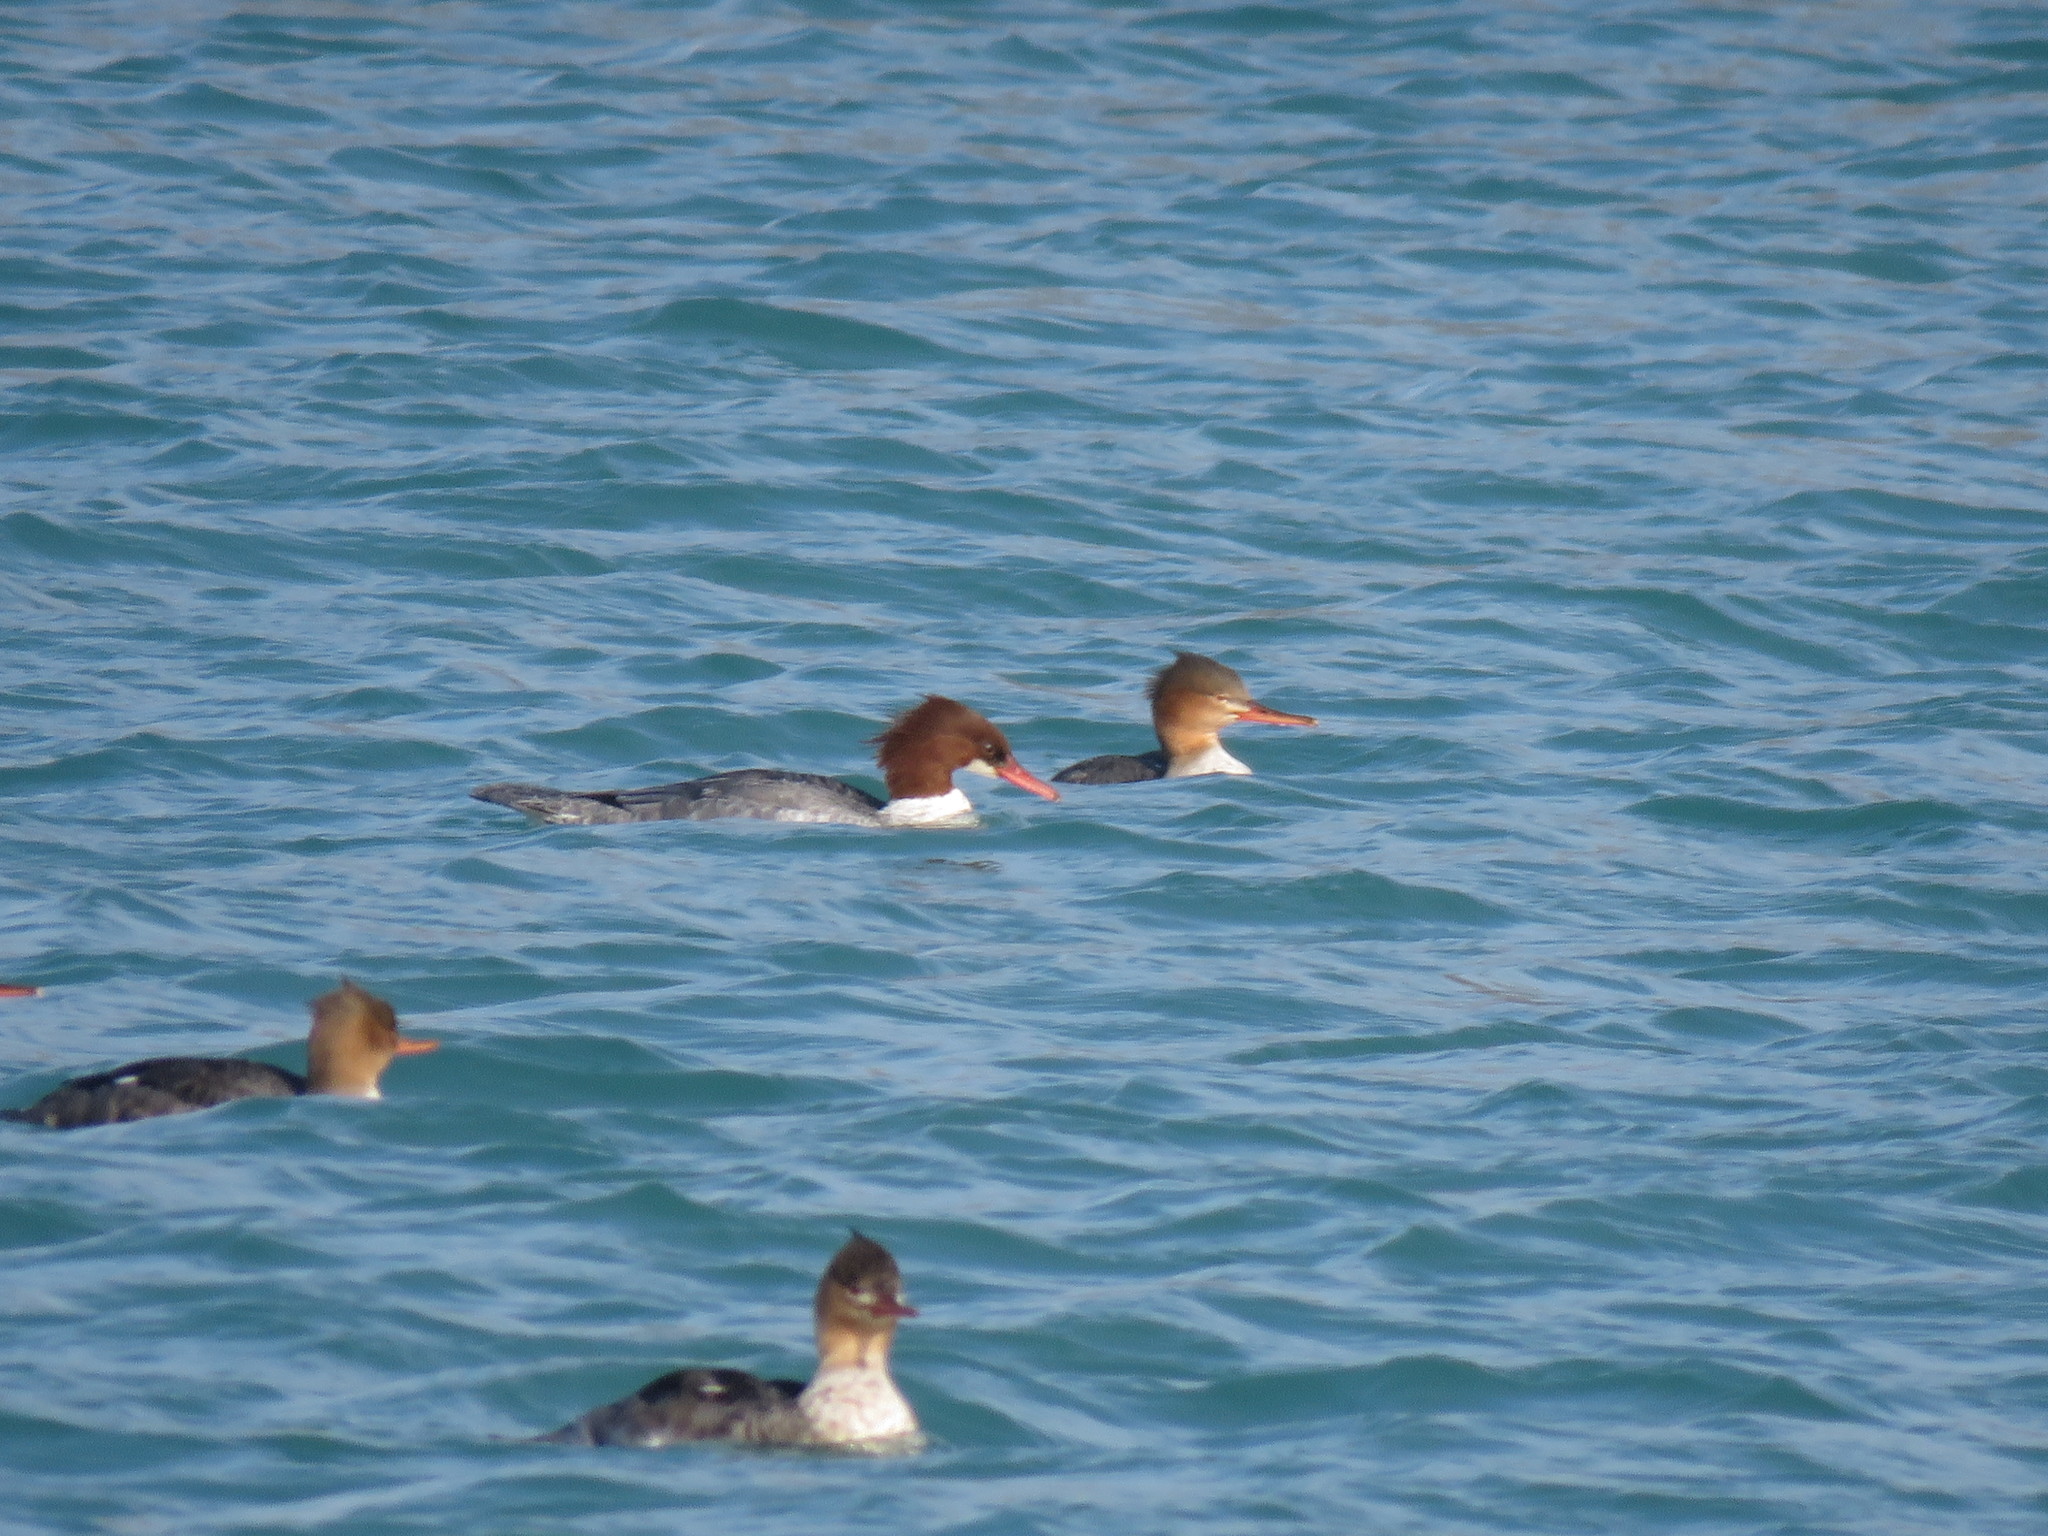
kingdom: Animalia
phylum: Chordata
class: Aves
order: Anseriformes
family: Anatidae
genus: Mergus
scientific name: Mergus merganser
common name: Common merganser
